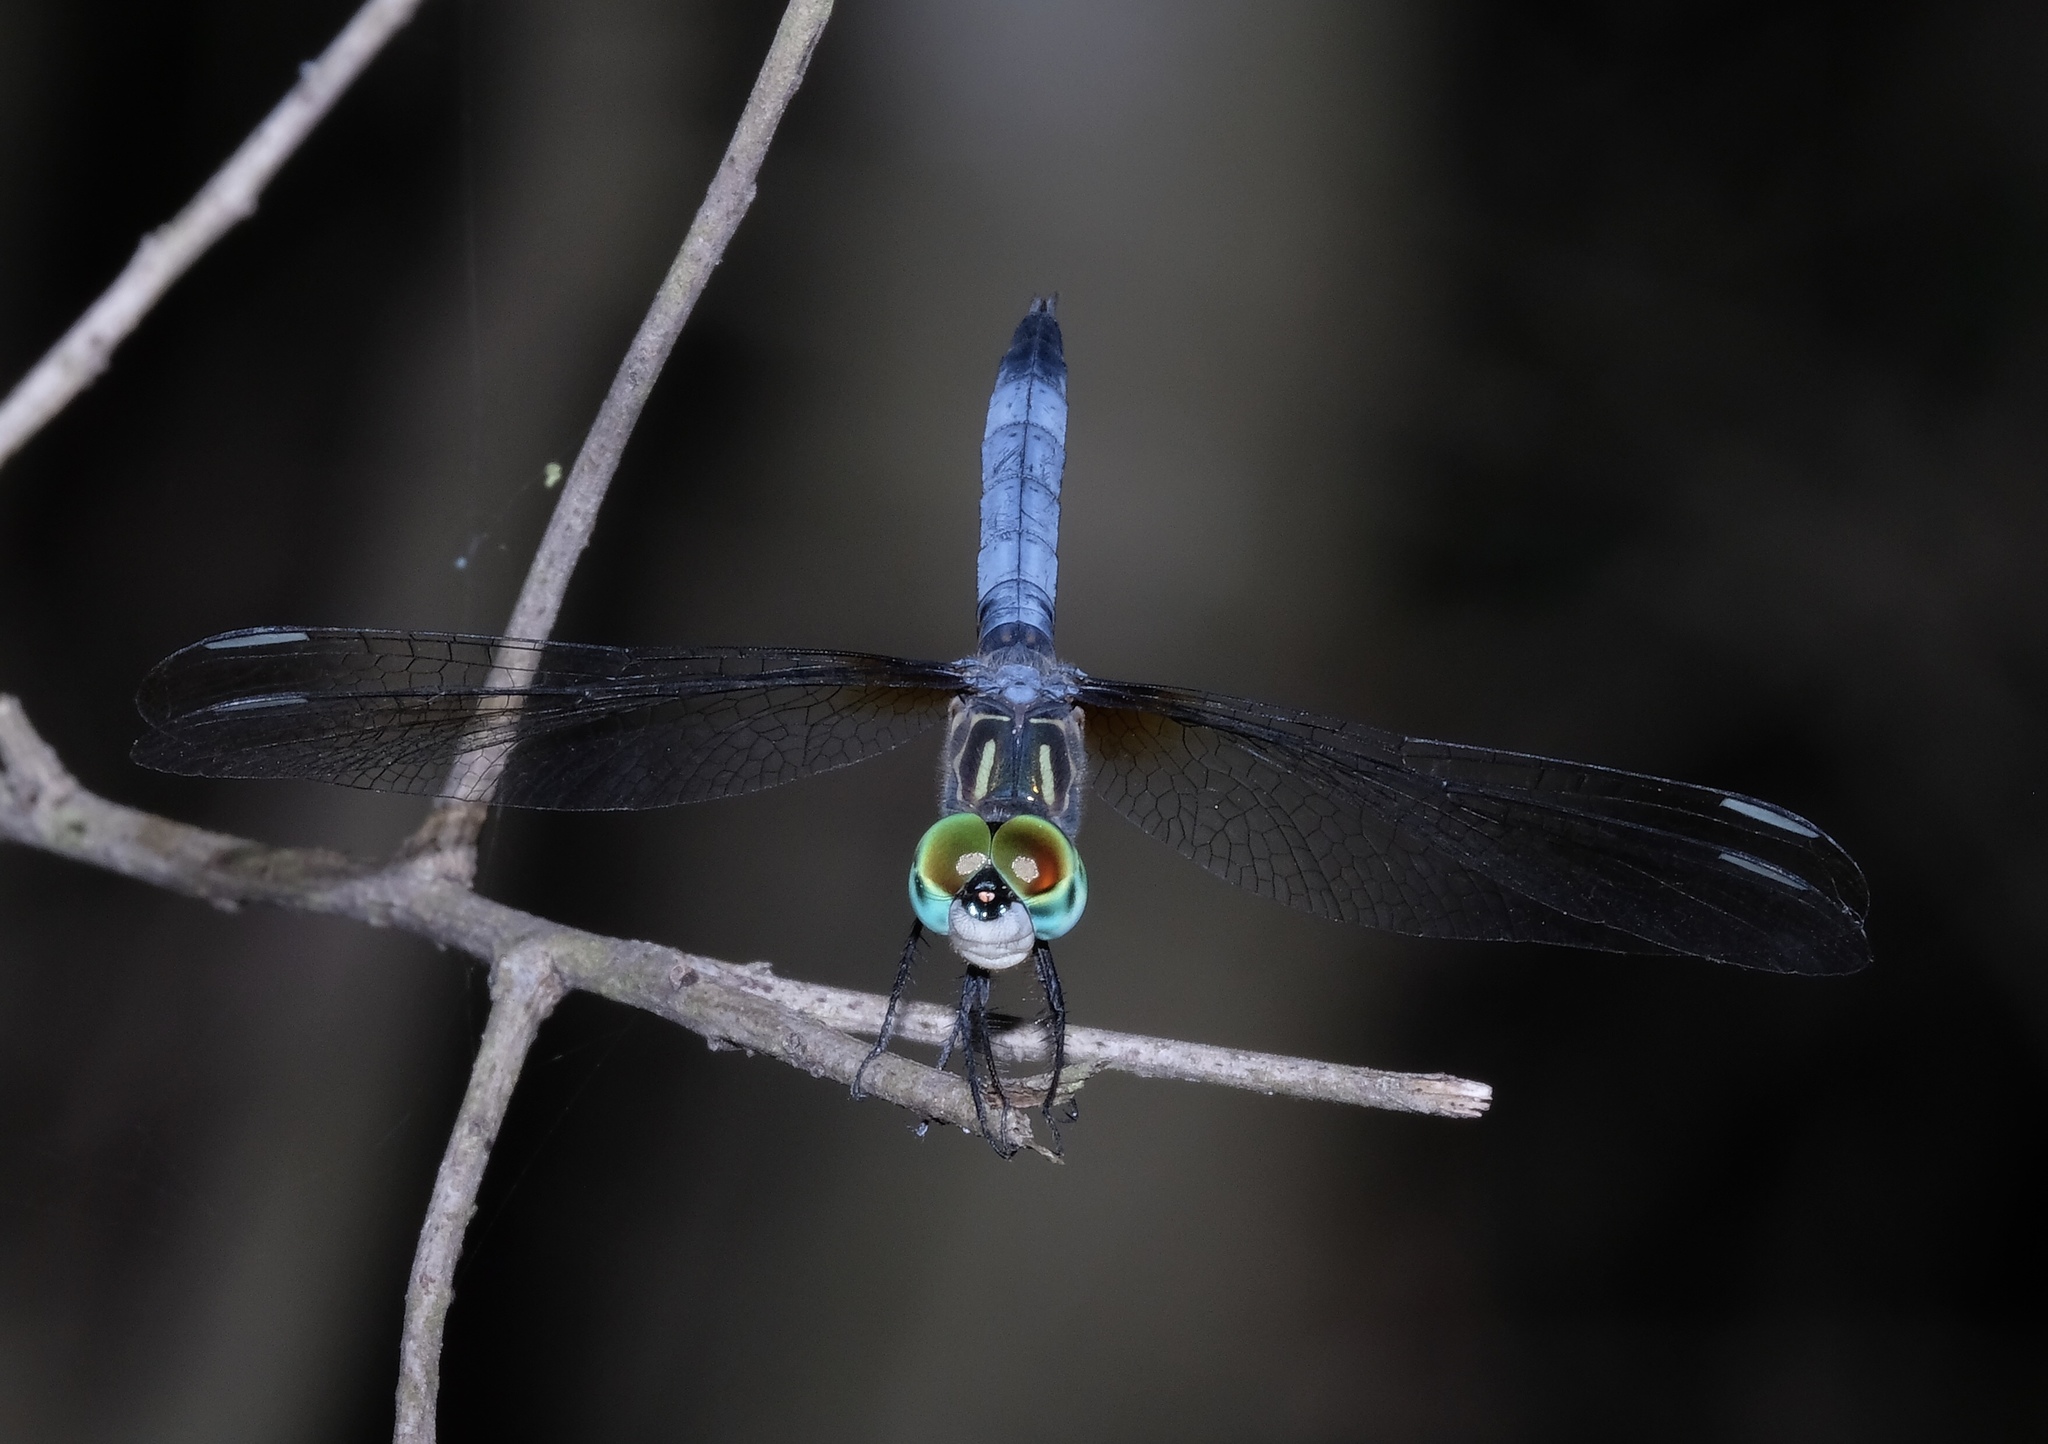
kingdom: Animalia
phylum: Arthropoda
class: Insecta
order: Odonata
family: Libellulidae
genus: Pachydiplax
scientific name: Pachydiplax longipennis
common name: Blue dasher
